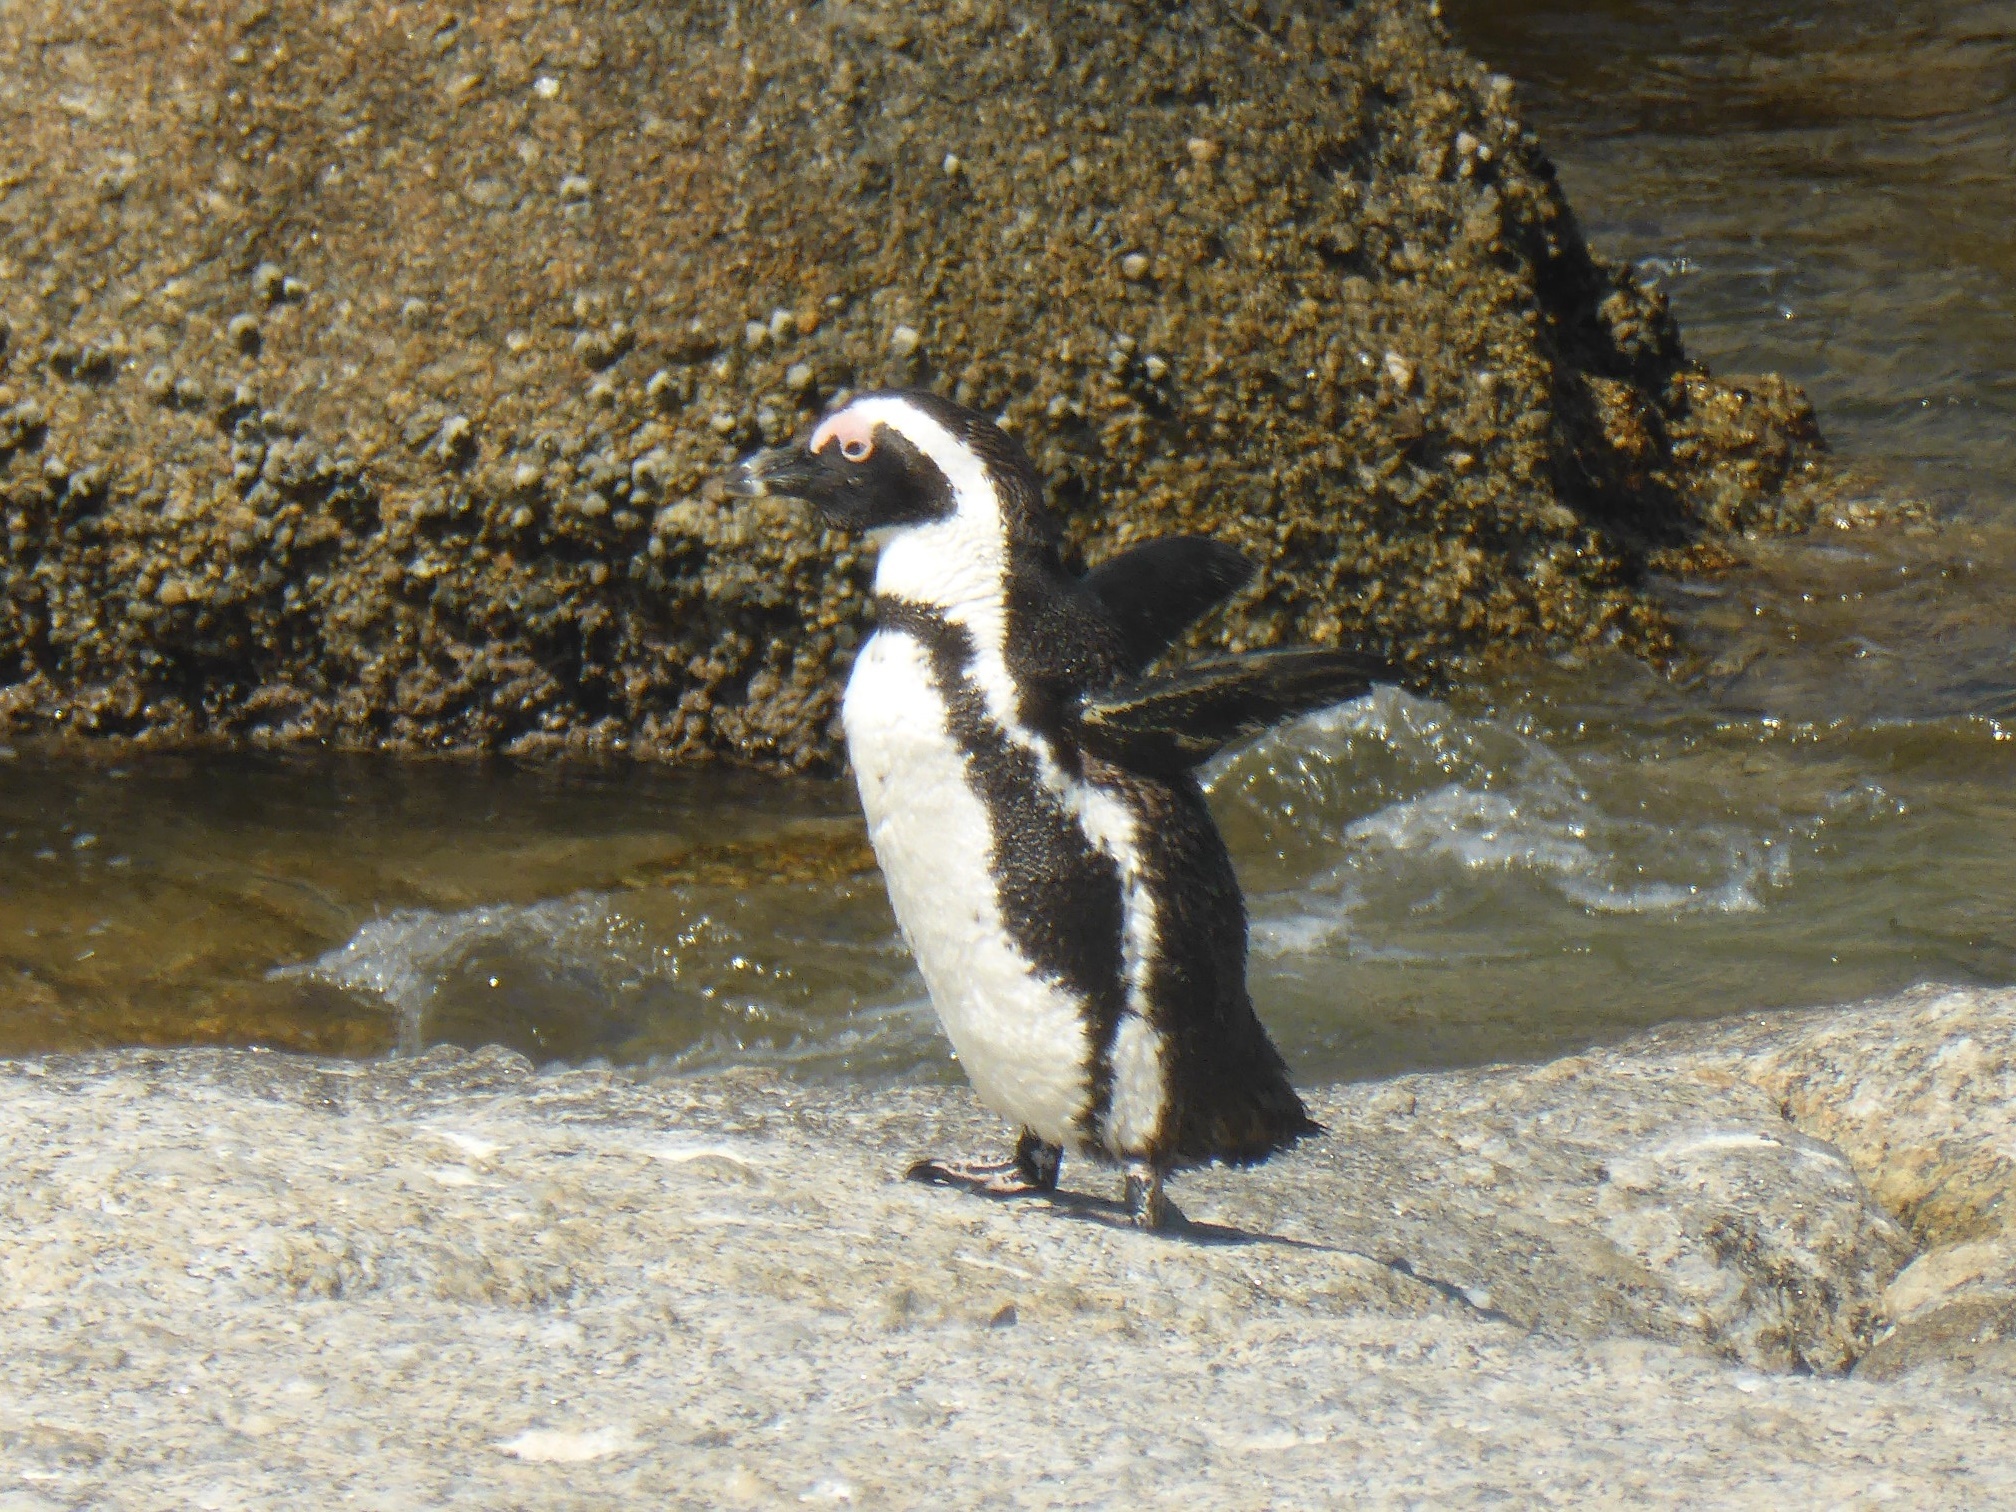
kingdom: Animalia
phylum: Chordata
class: Aves
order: Sphenisciformes
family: Spheniscidae
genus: Spheniscus
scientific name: Spheniscus demersus
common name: African penguin
